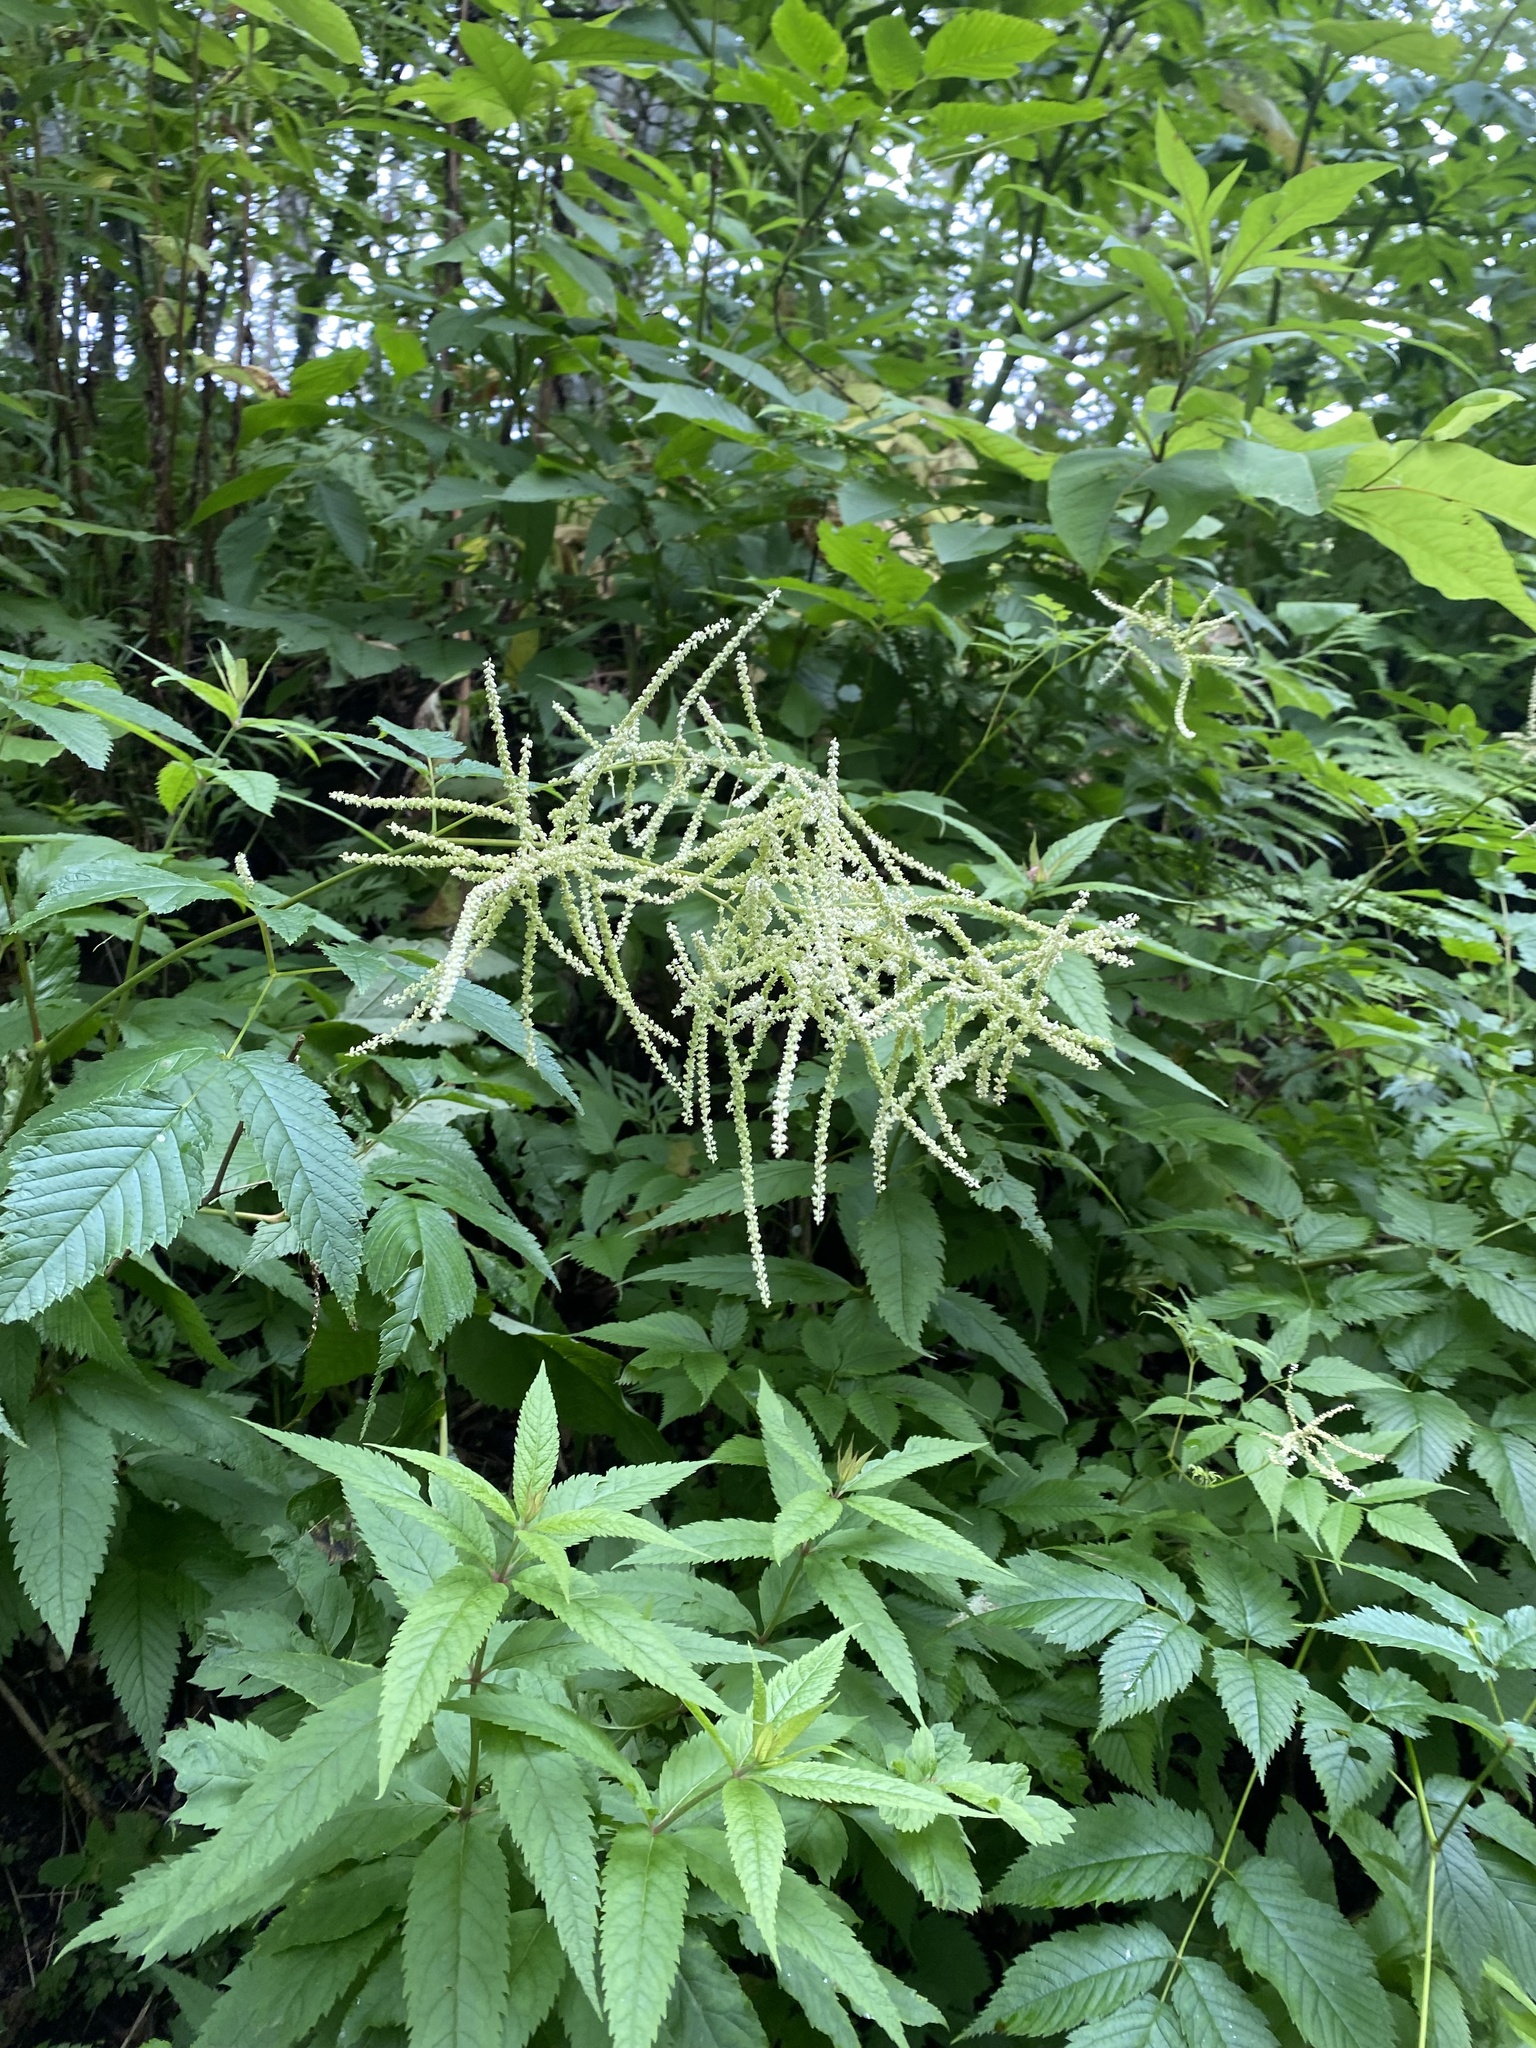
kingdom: Plantae
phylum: Tracheophyta
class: Magnoliopsida
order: Rosales
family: Rosaceae
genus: Aruncus
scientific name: Aruncus dioicus
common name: Buck's-beard
